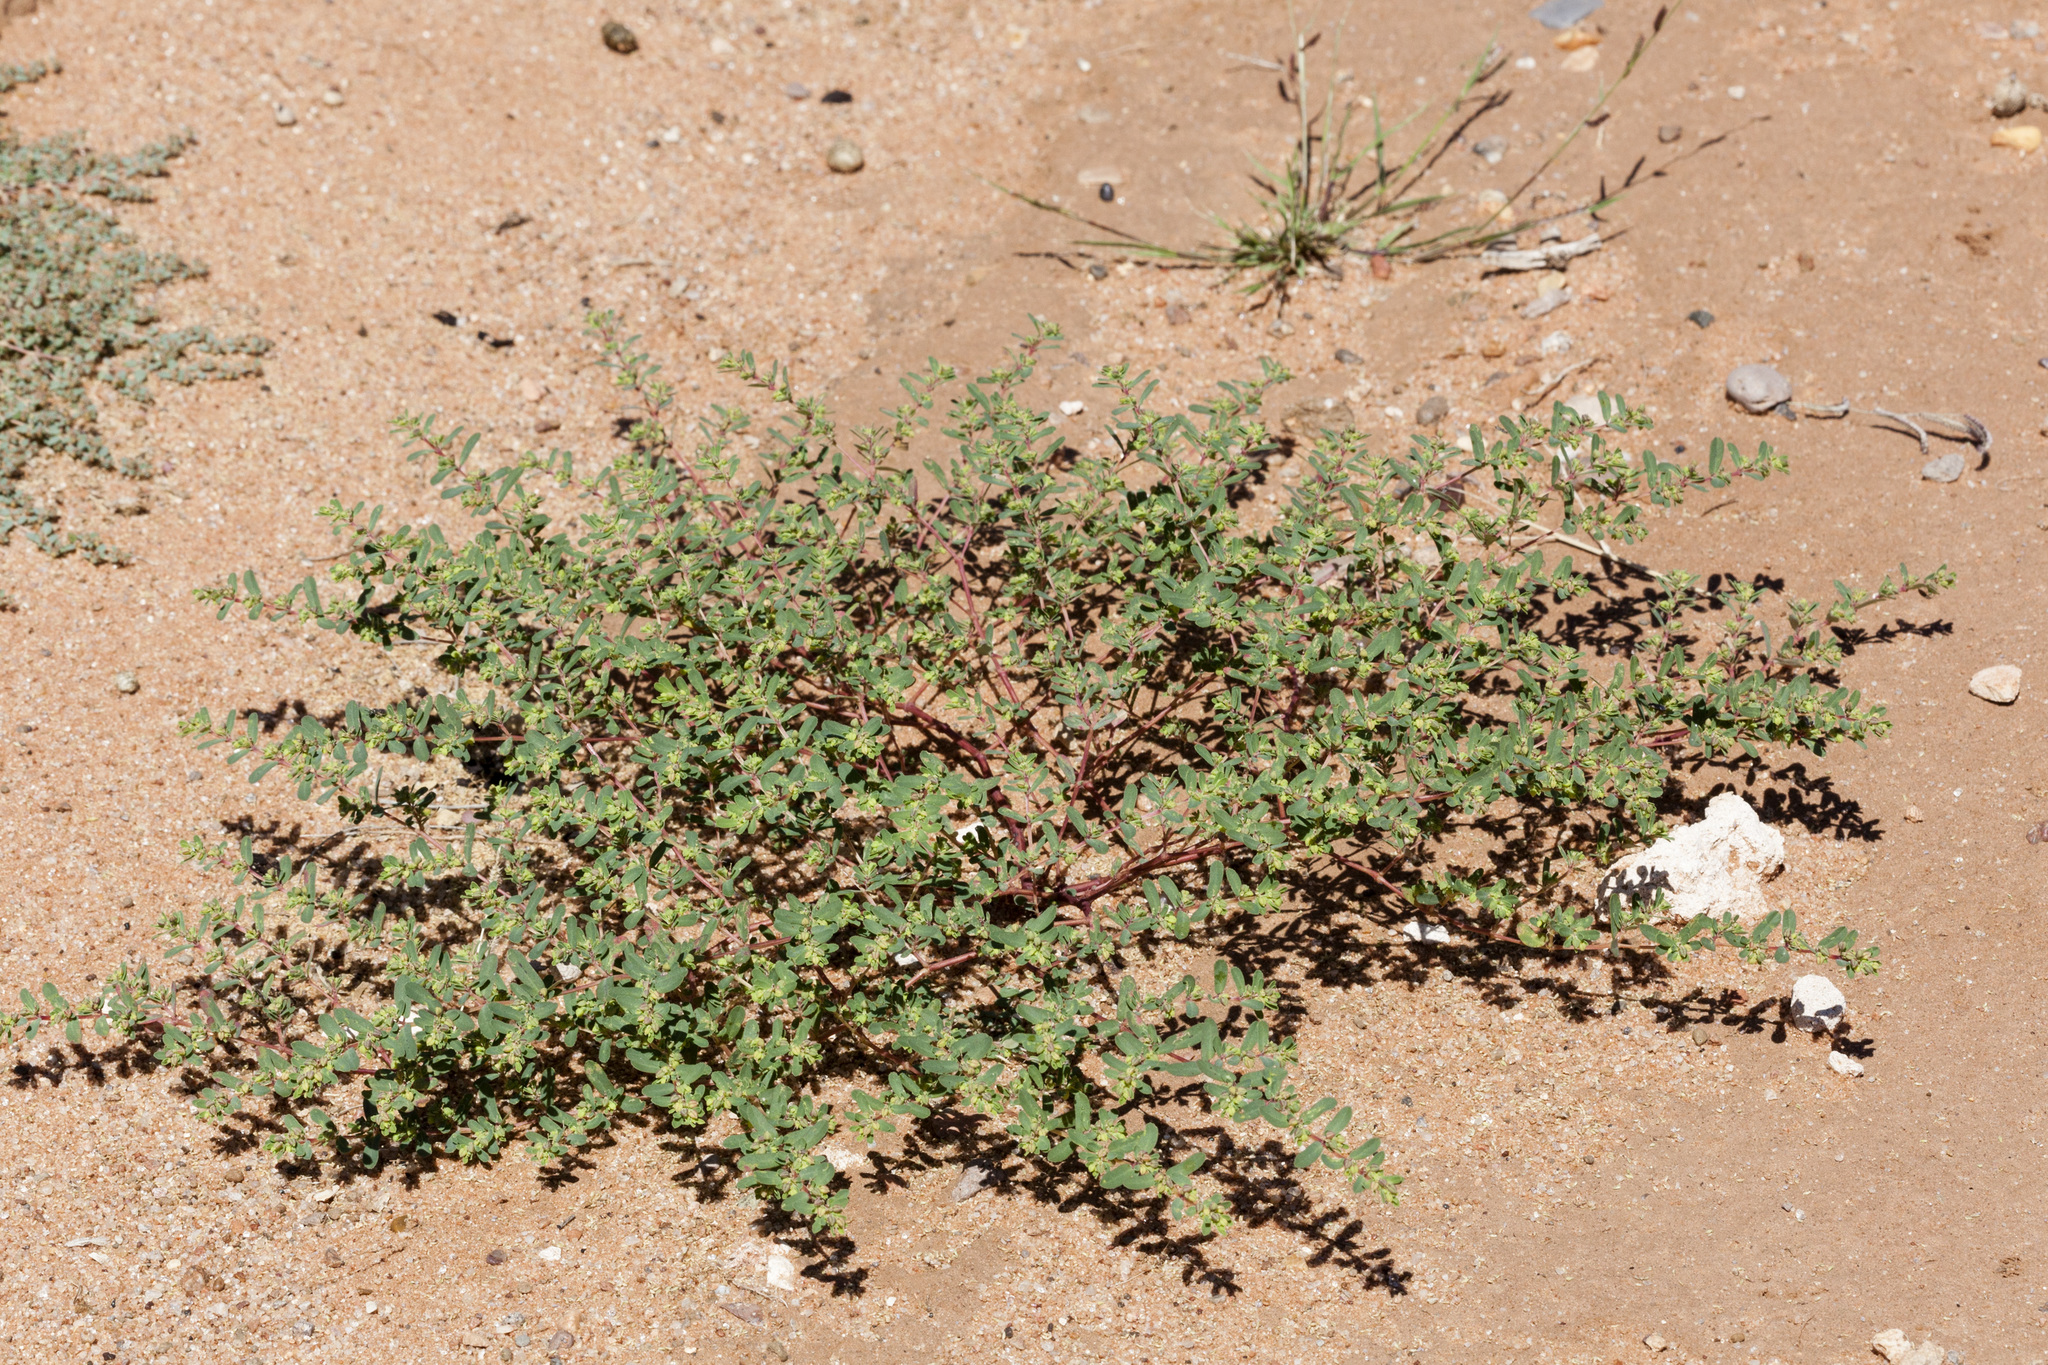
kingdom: Plantae
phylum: Tracheophyta
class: Magnoliopsida
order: Malpighiales
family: Euphorbiaceae
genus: Euphorbia
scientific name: Euphorbia serpillifolia
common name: Thyme-leaf spurge
